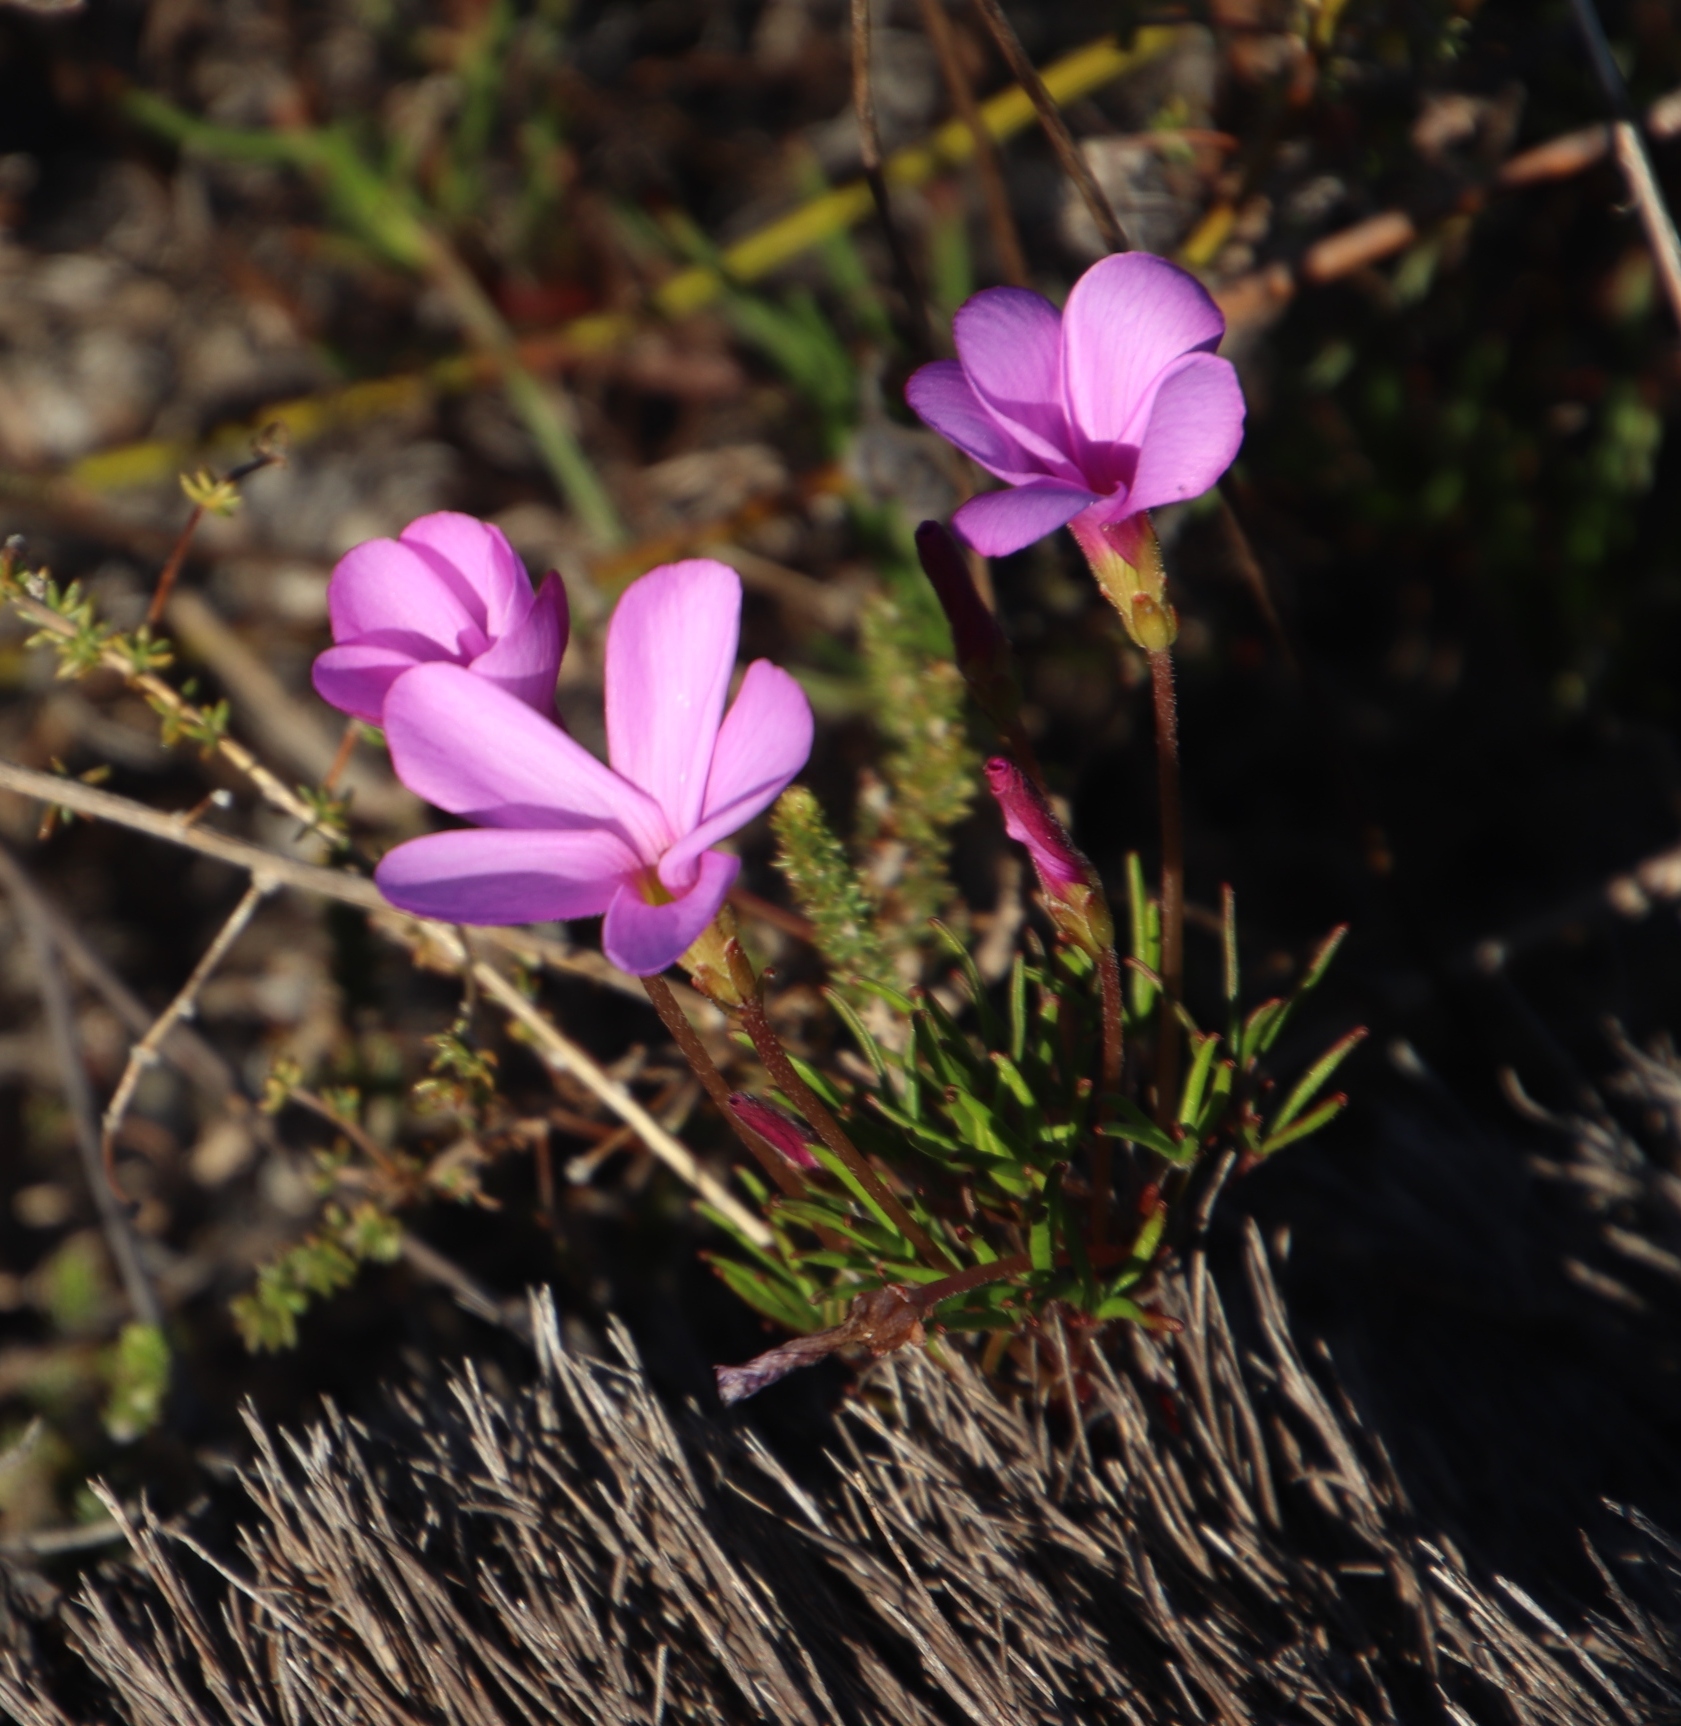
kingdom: Plantae
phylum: Tracheophyta
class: Magnoliopsida
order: Oxalidales
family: Oxalidaceae
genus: Oxalis
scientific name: Oxalis polyphylla
